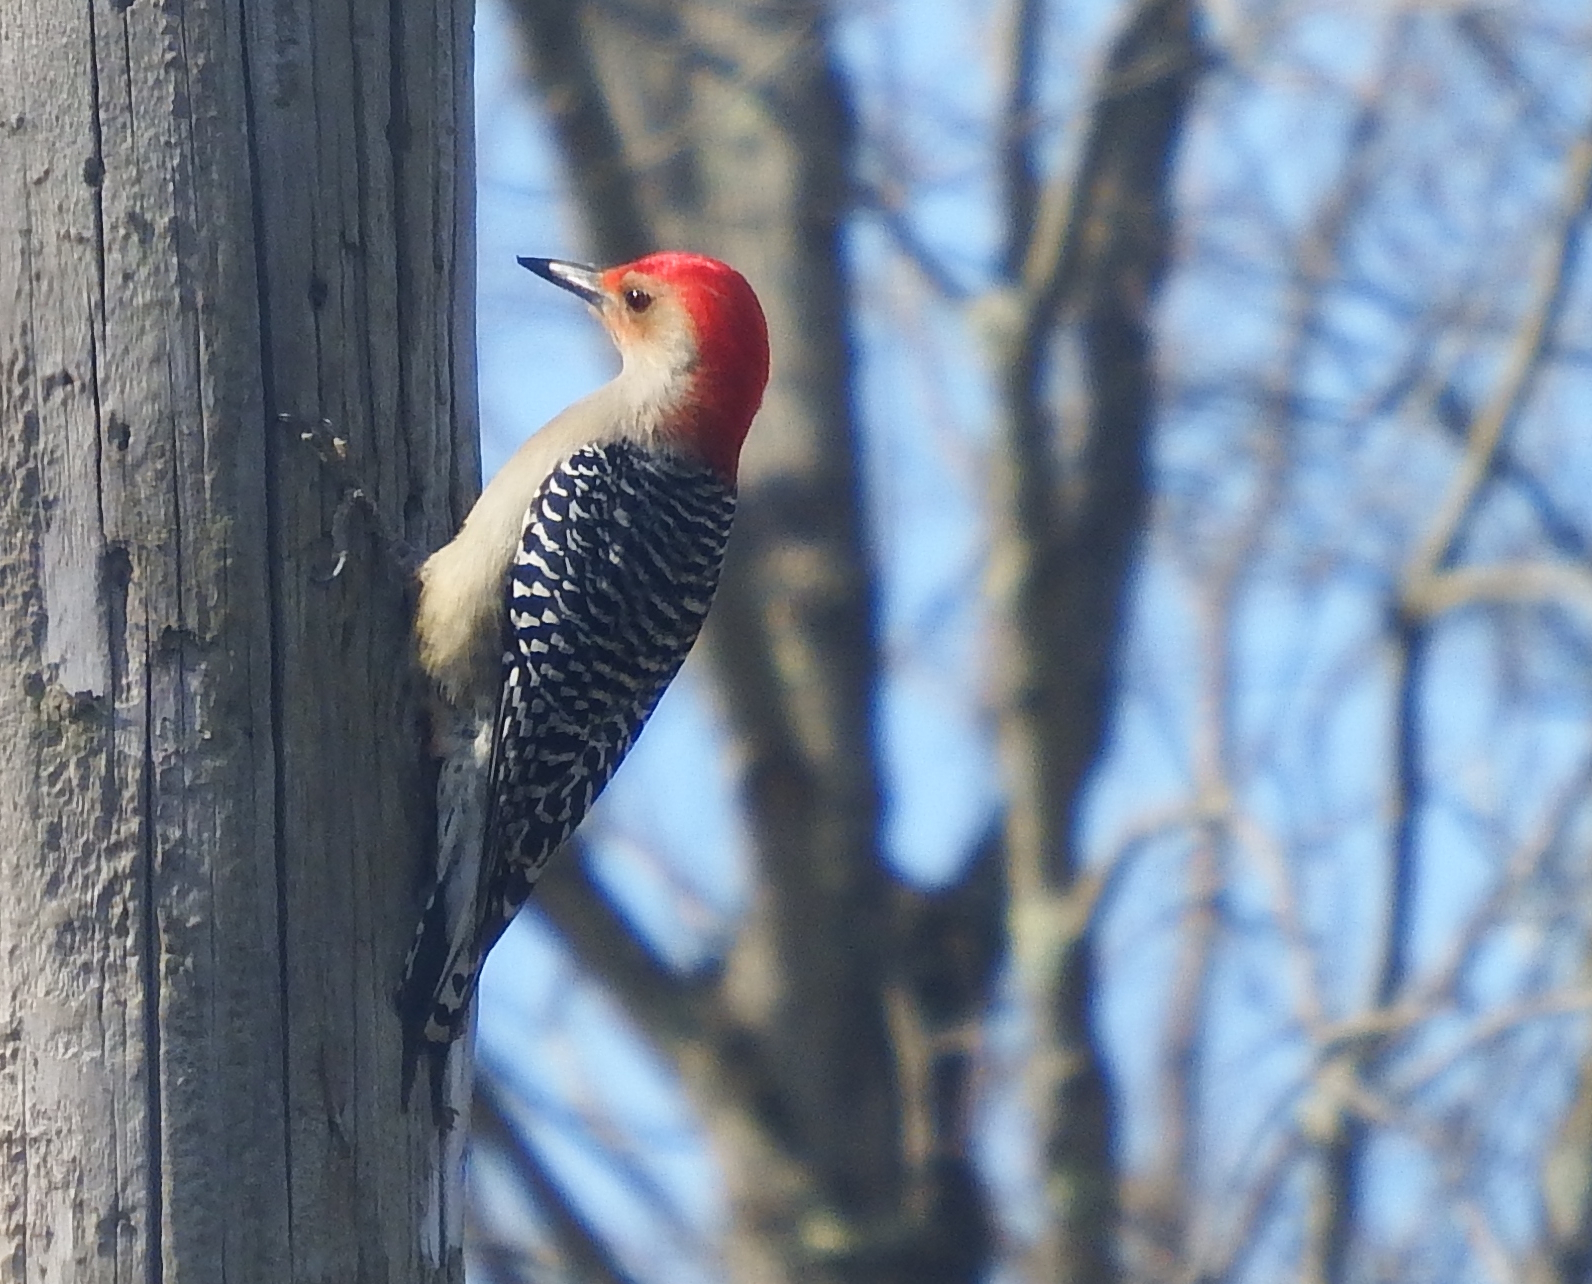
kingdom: Animalia
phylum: Chordata
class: Aves
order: Piciformes
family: Picidae
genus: Melanerpes
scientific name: Melanerpes carolinus
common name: Red-bellied woodpecker
